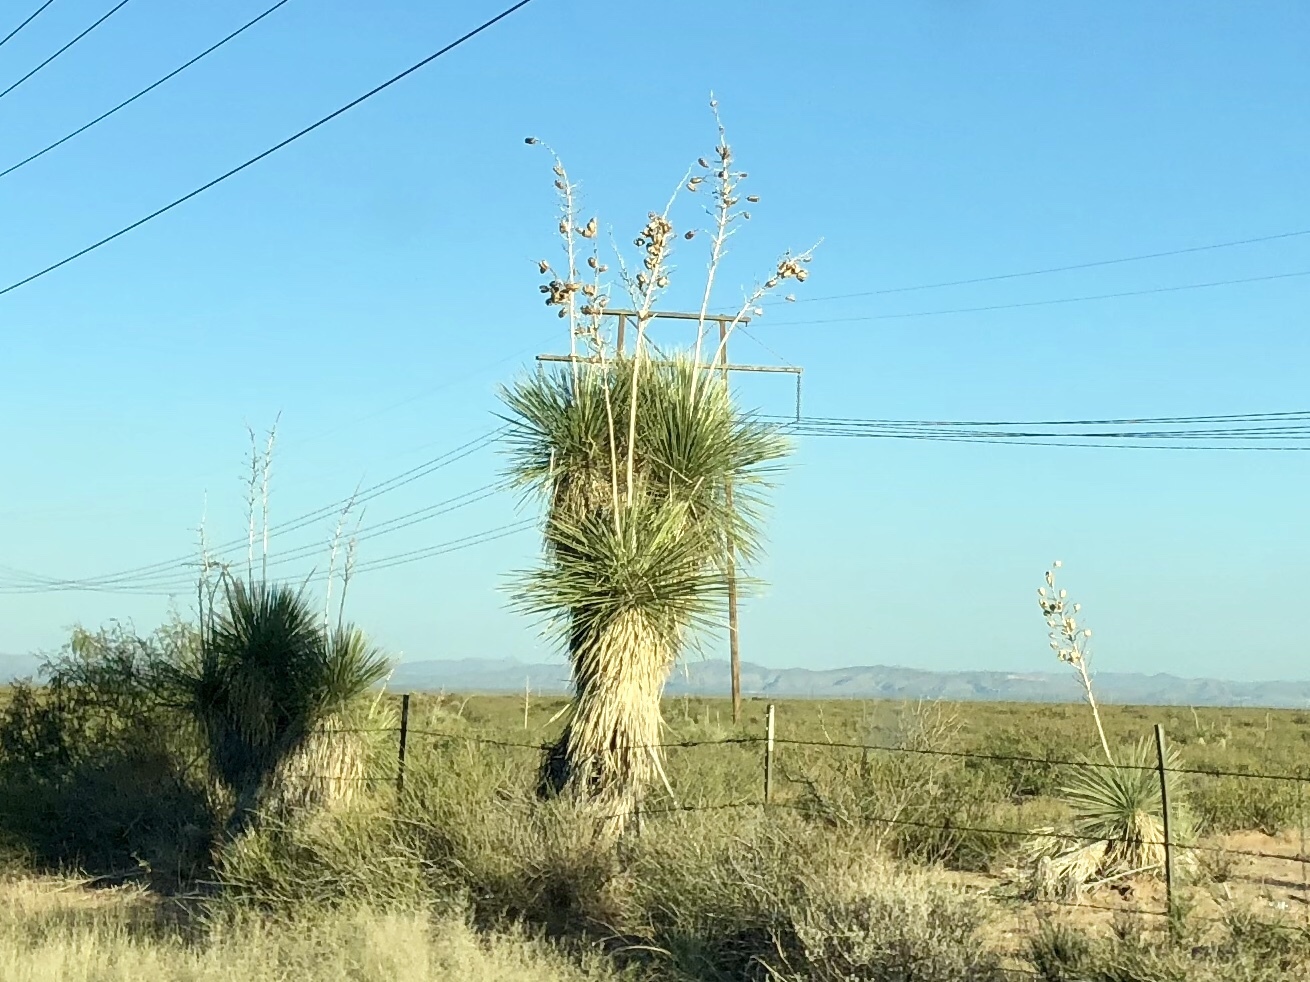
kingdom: Plantae
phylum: Tracheophyta
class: Liliopsida
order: Asparagales
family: Asparagaceae
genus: Yucca
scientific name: Yucca elata
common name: Palmella
